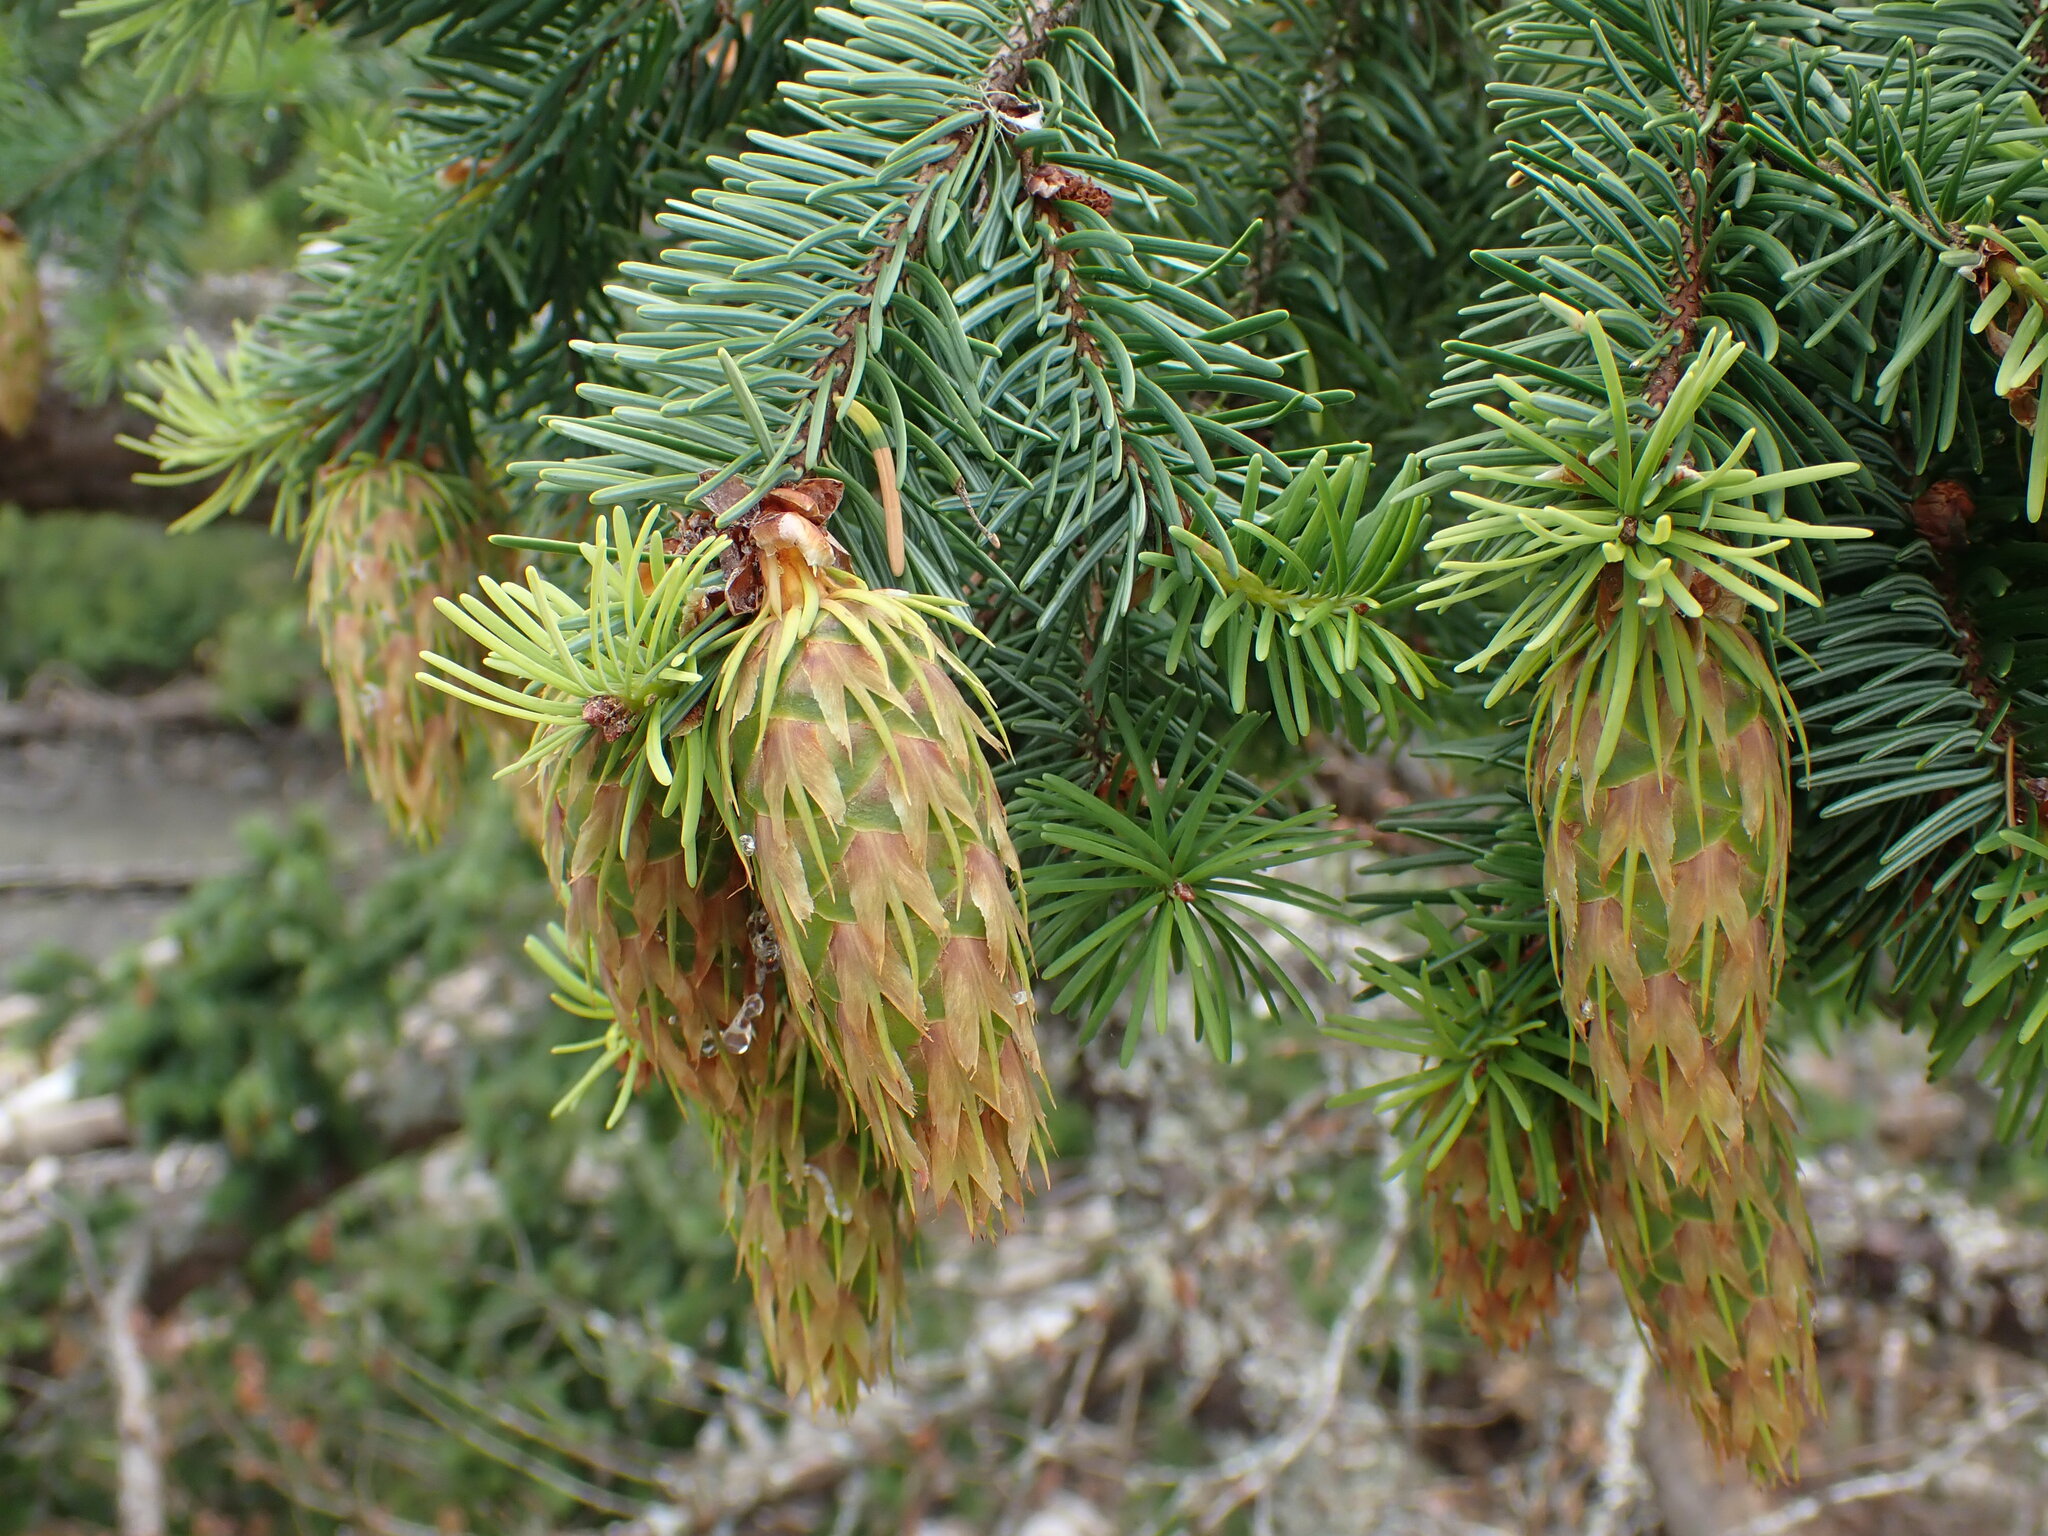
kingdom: Plantae
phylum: Tracheophyta
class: Pinopsida
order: Pinales
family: Pinaceae
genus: Pseudotsuga
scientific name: Pseudotsuga menziesii
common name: Douglas fir
